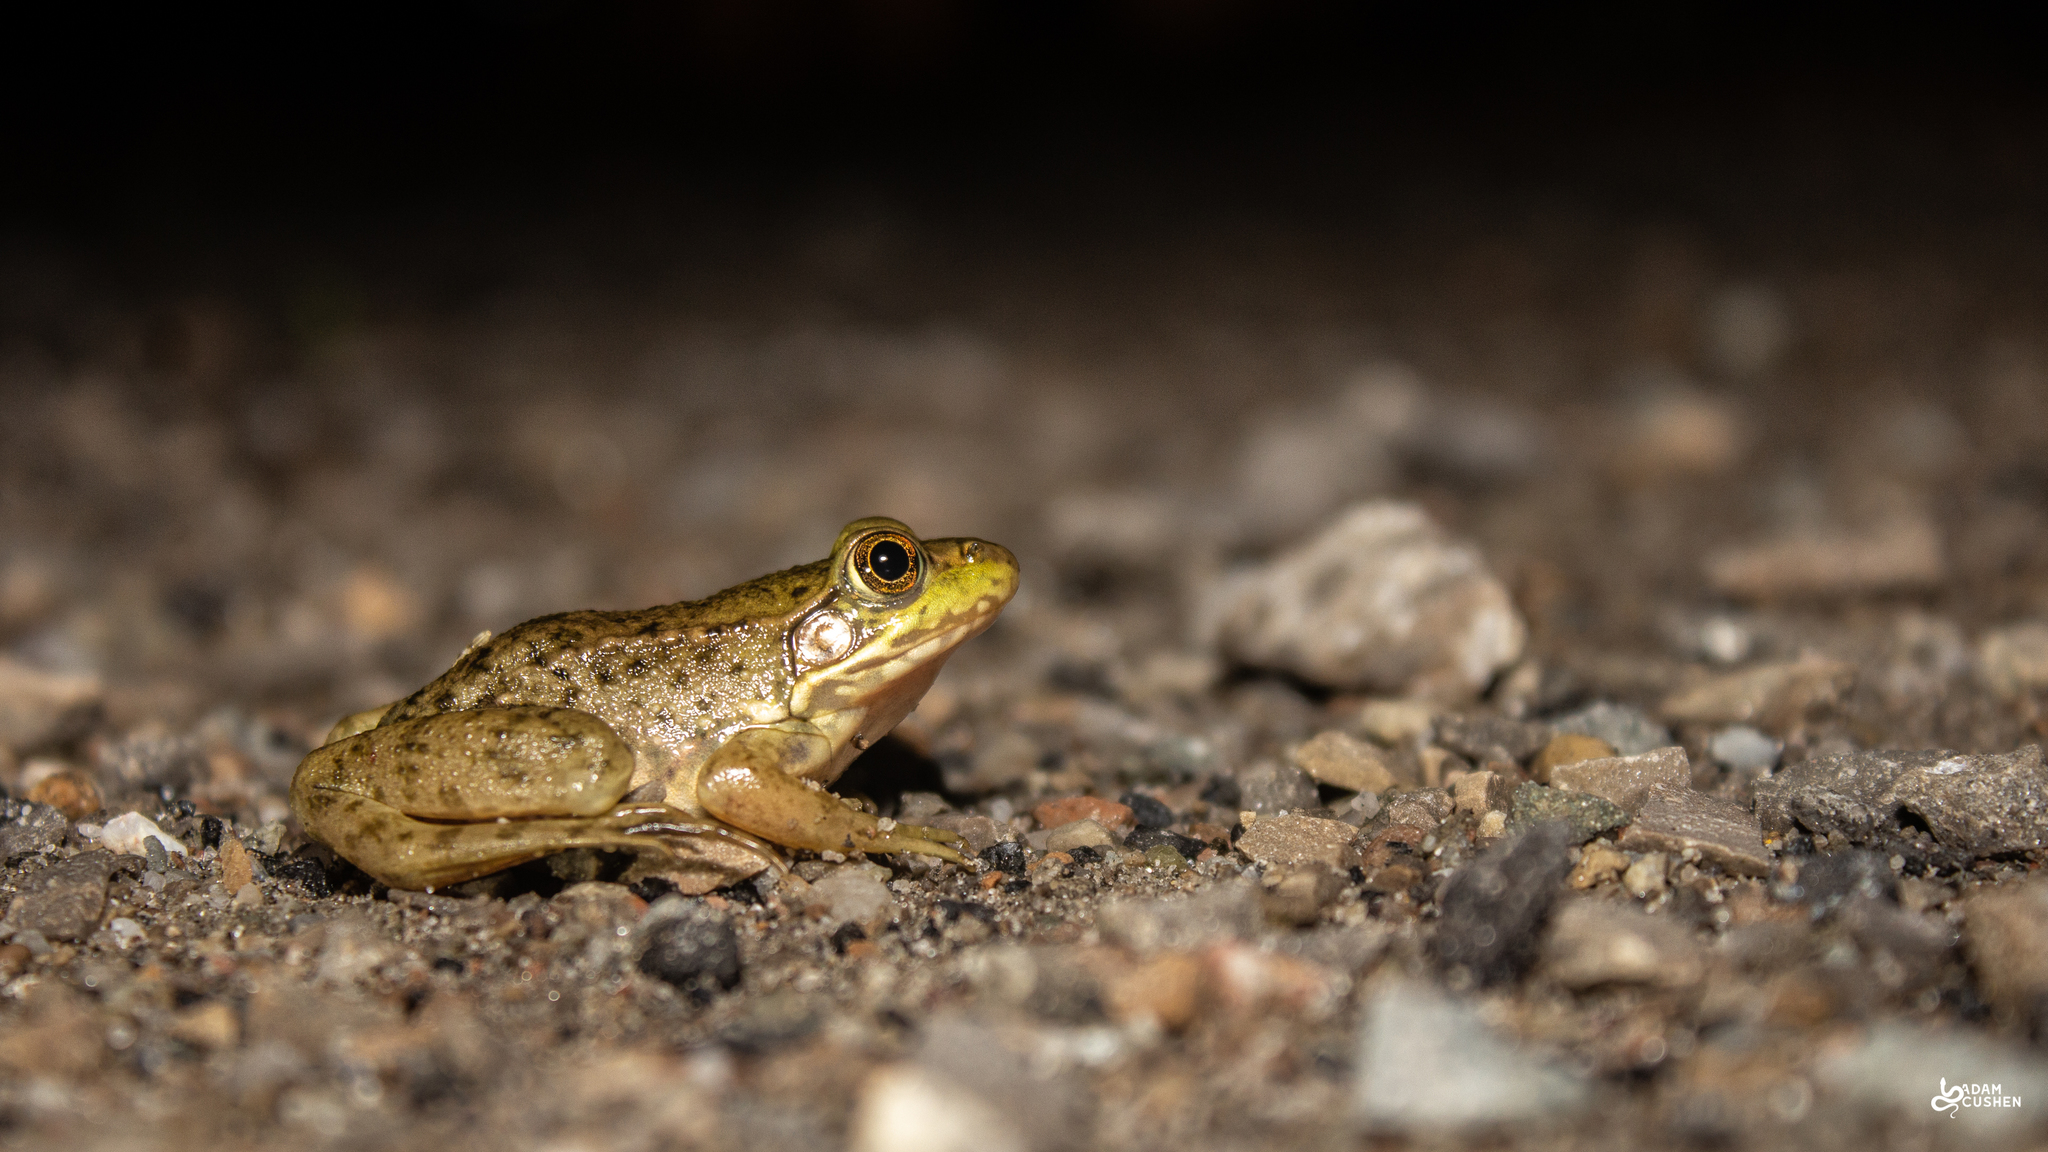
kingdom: Animalia
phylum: Chordata
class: Amphibia
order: Anura
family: Ranidae
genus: Lithobates
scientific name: Lithobates clamitans
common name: Green frog
